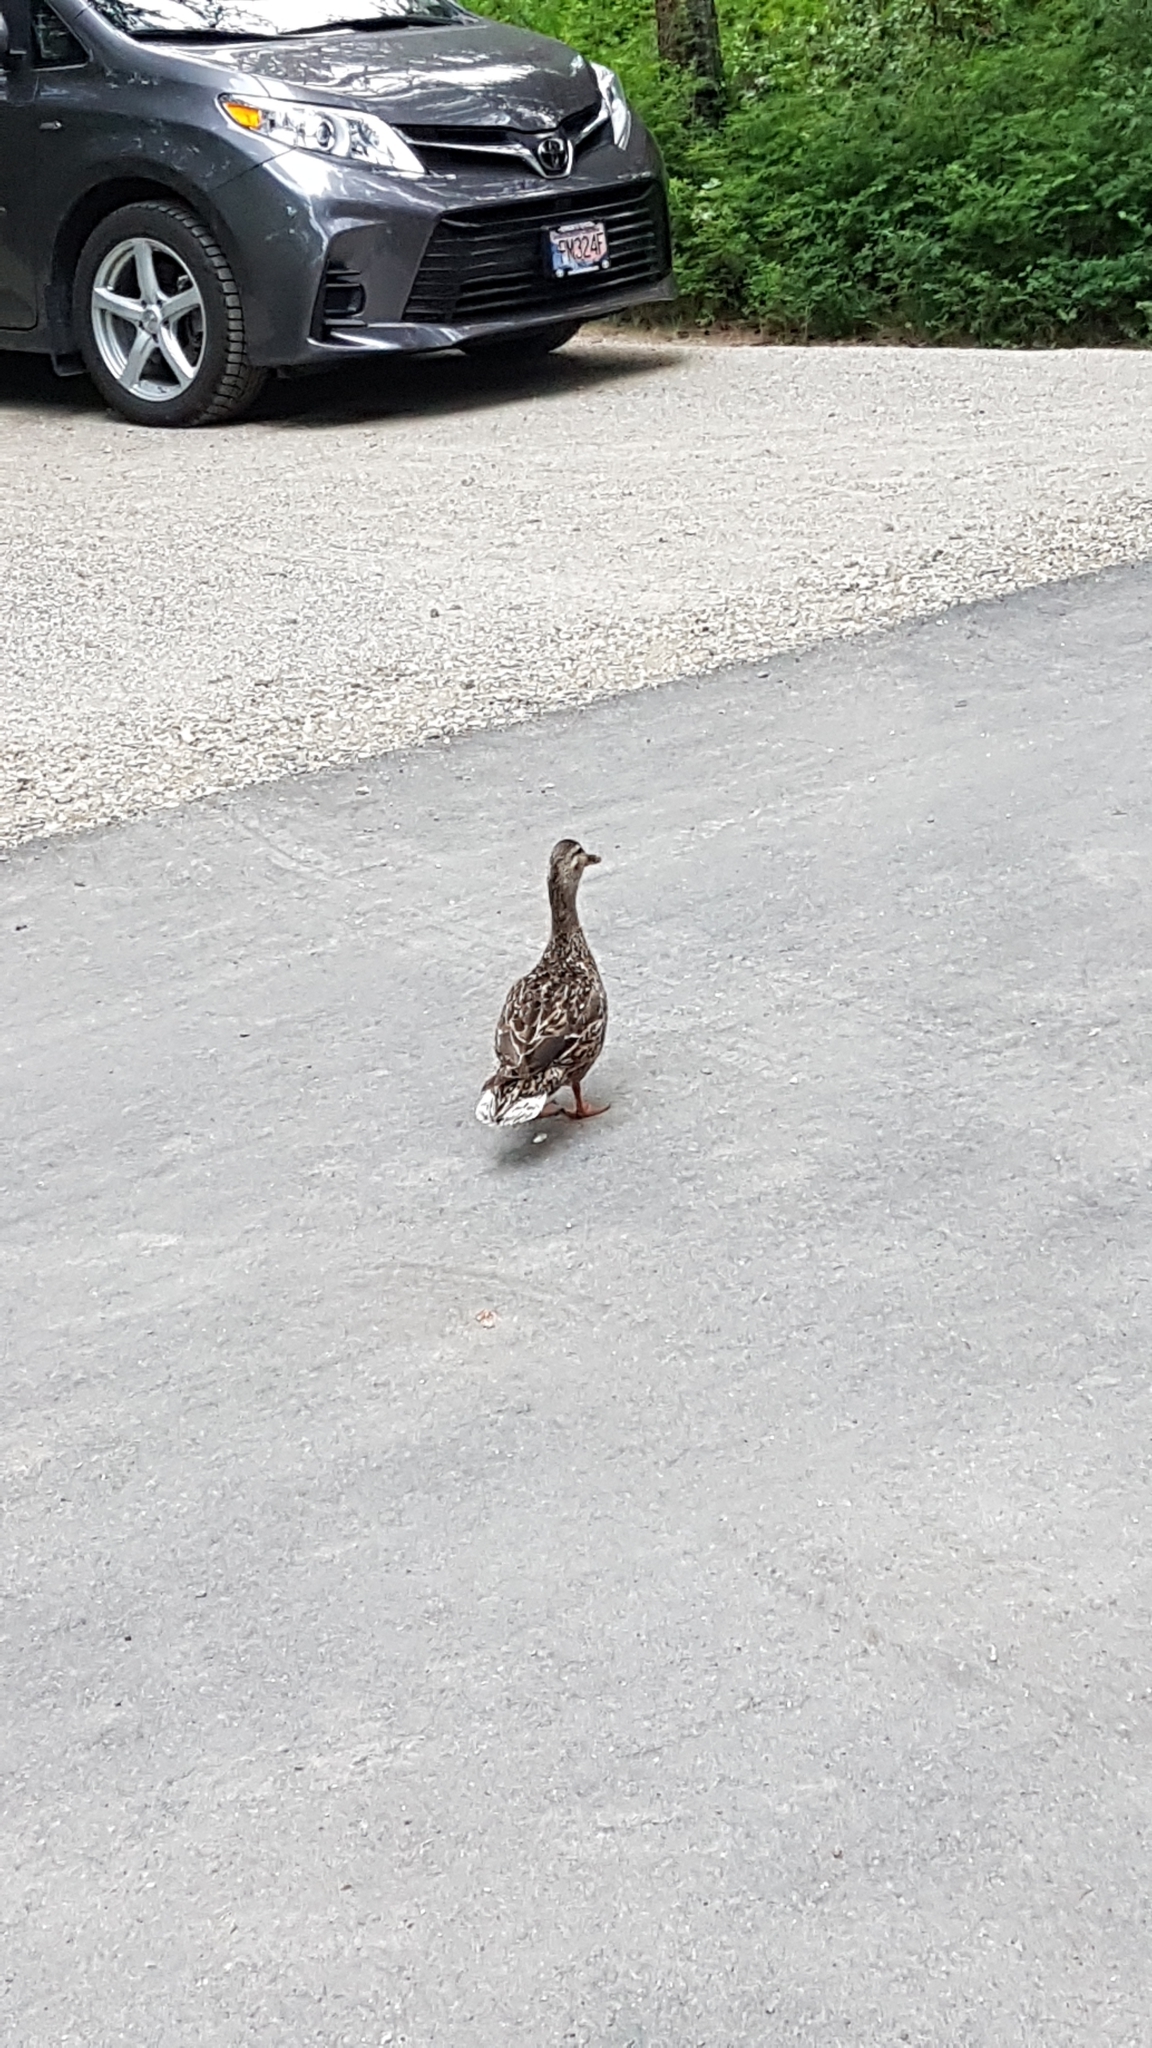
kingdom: Animalia
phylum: Chordata
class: Aves
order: Anseriformes
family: Anatidae
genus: Anas
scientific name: Anas platyrhynchos
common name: Mallard
